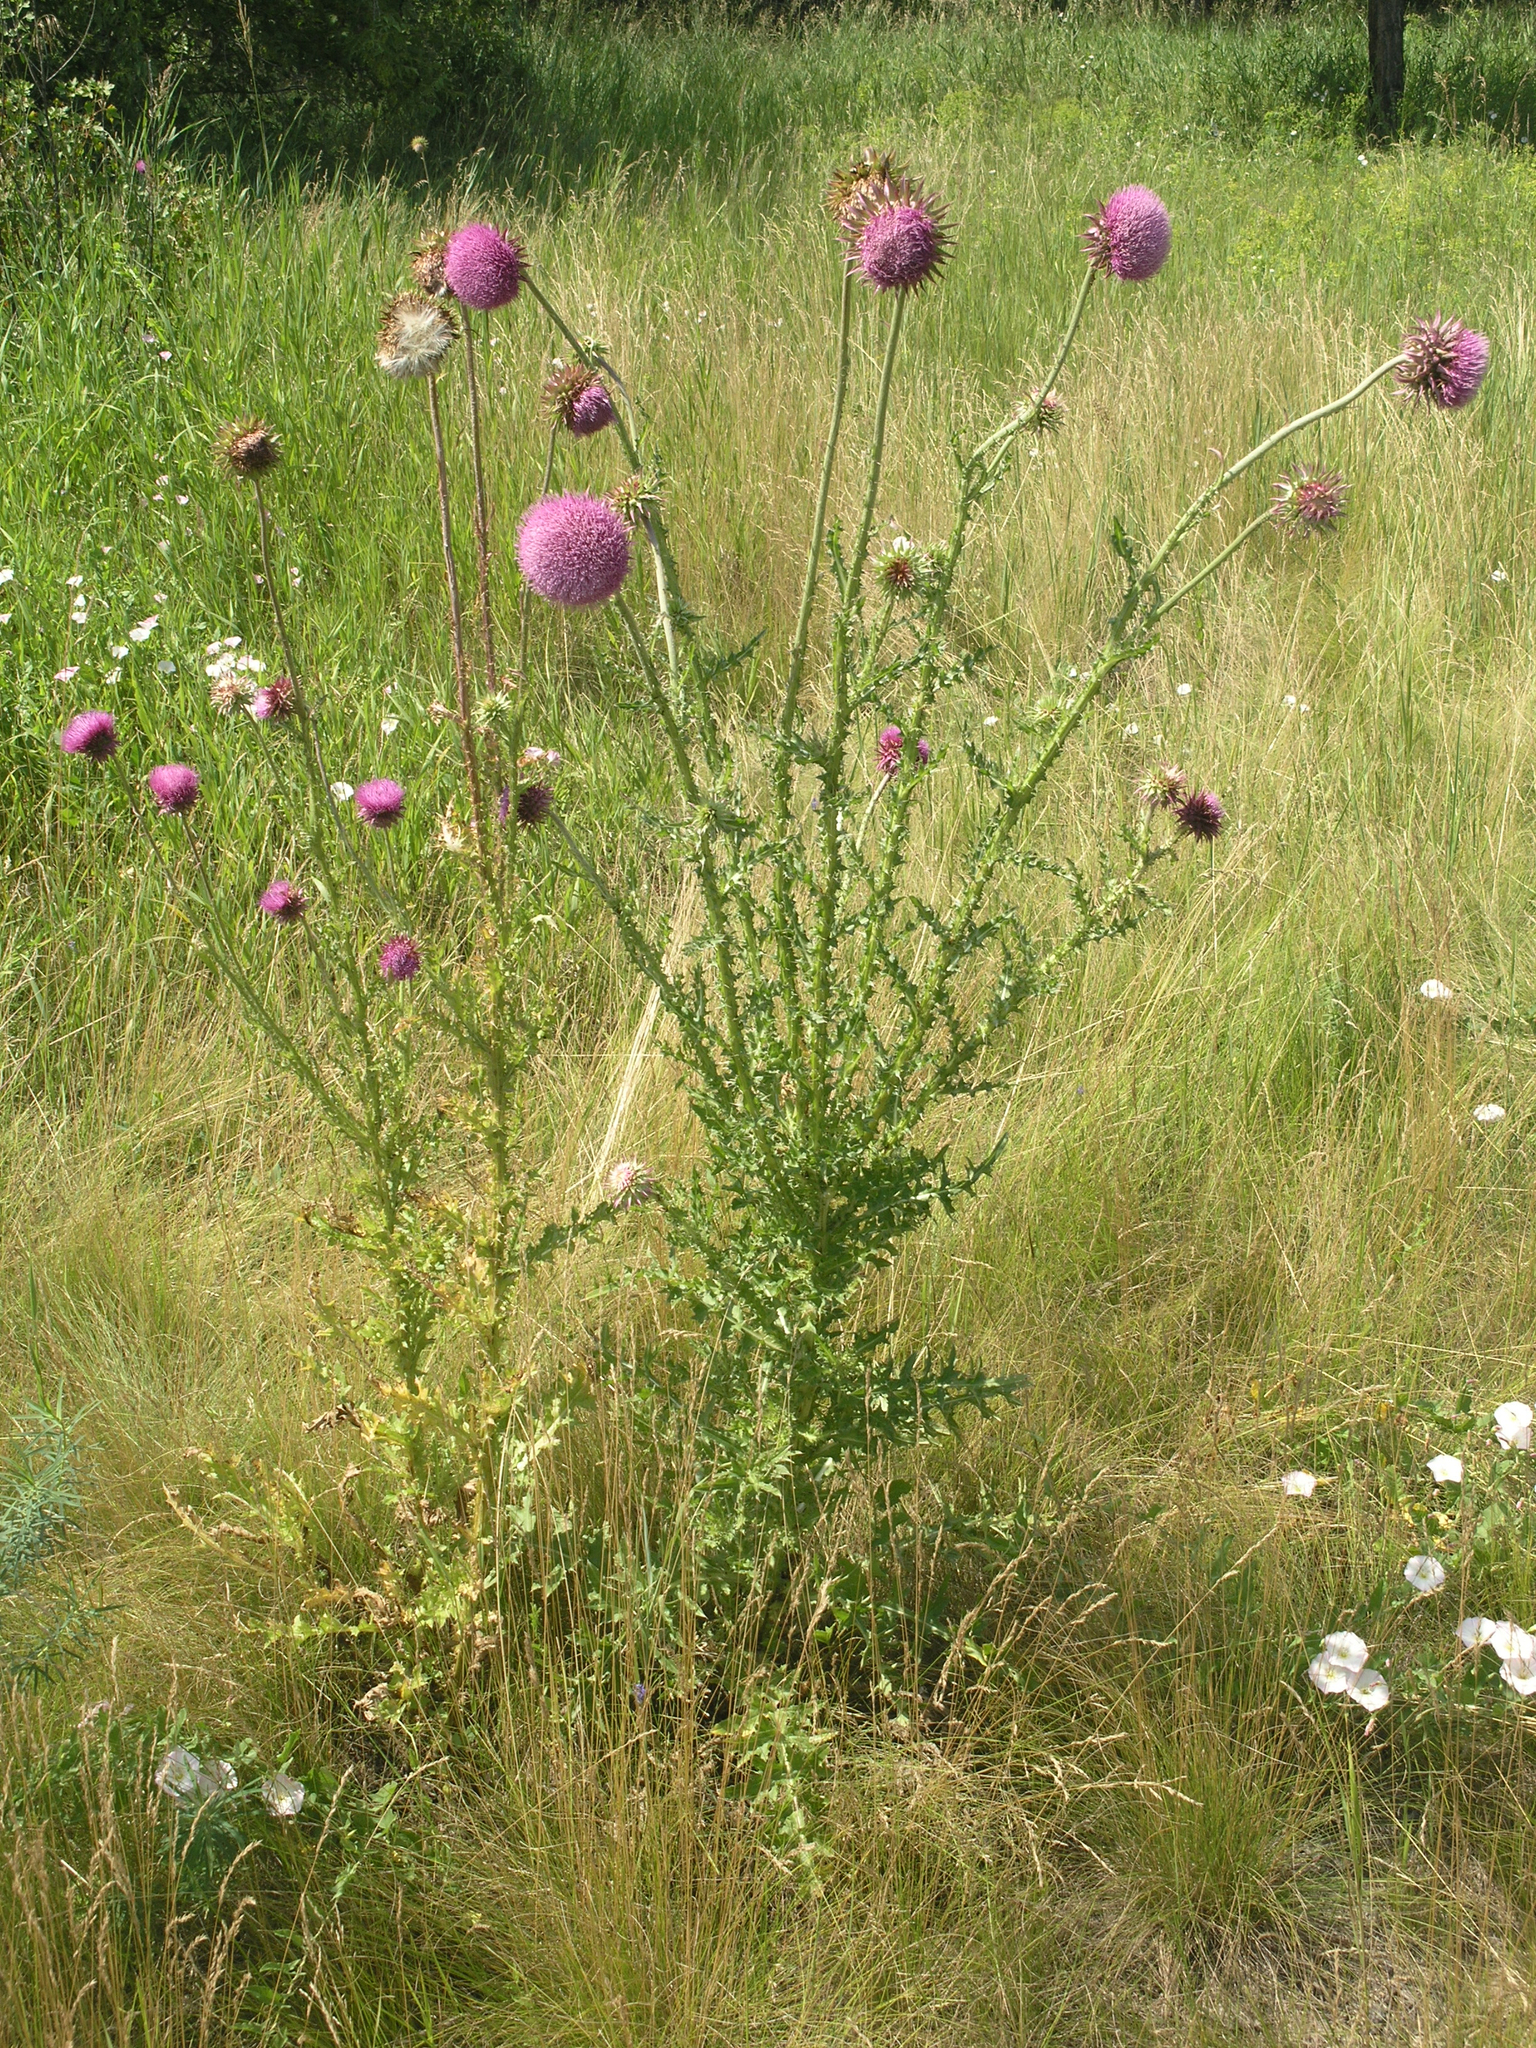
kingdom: Plantae
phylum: Tracheophyta
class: Magnoliopsida
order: Asterales
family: Asteraceae
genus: Carduus
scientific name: Carduus nutans
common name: Musk thistle
